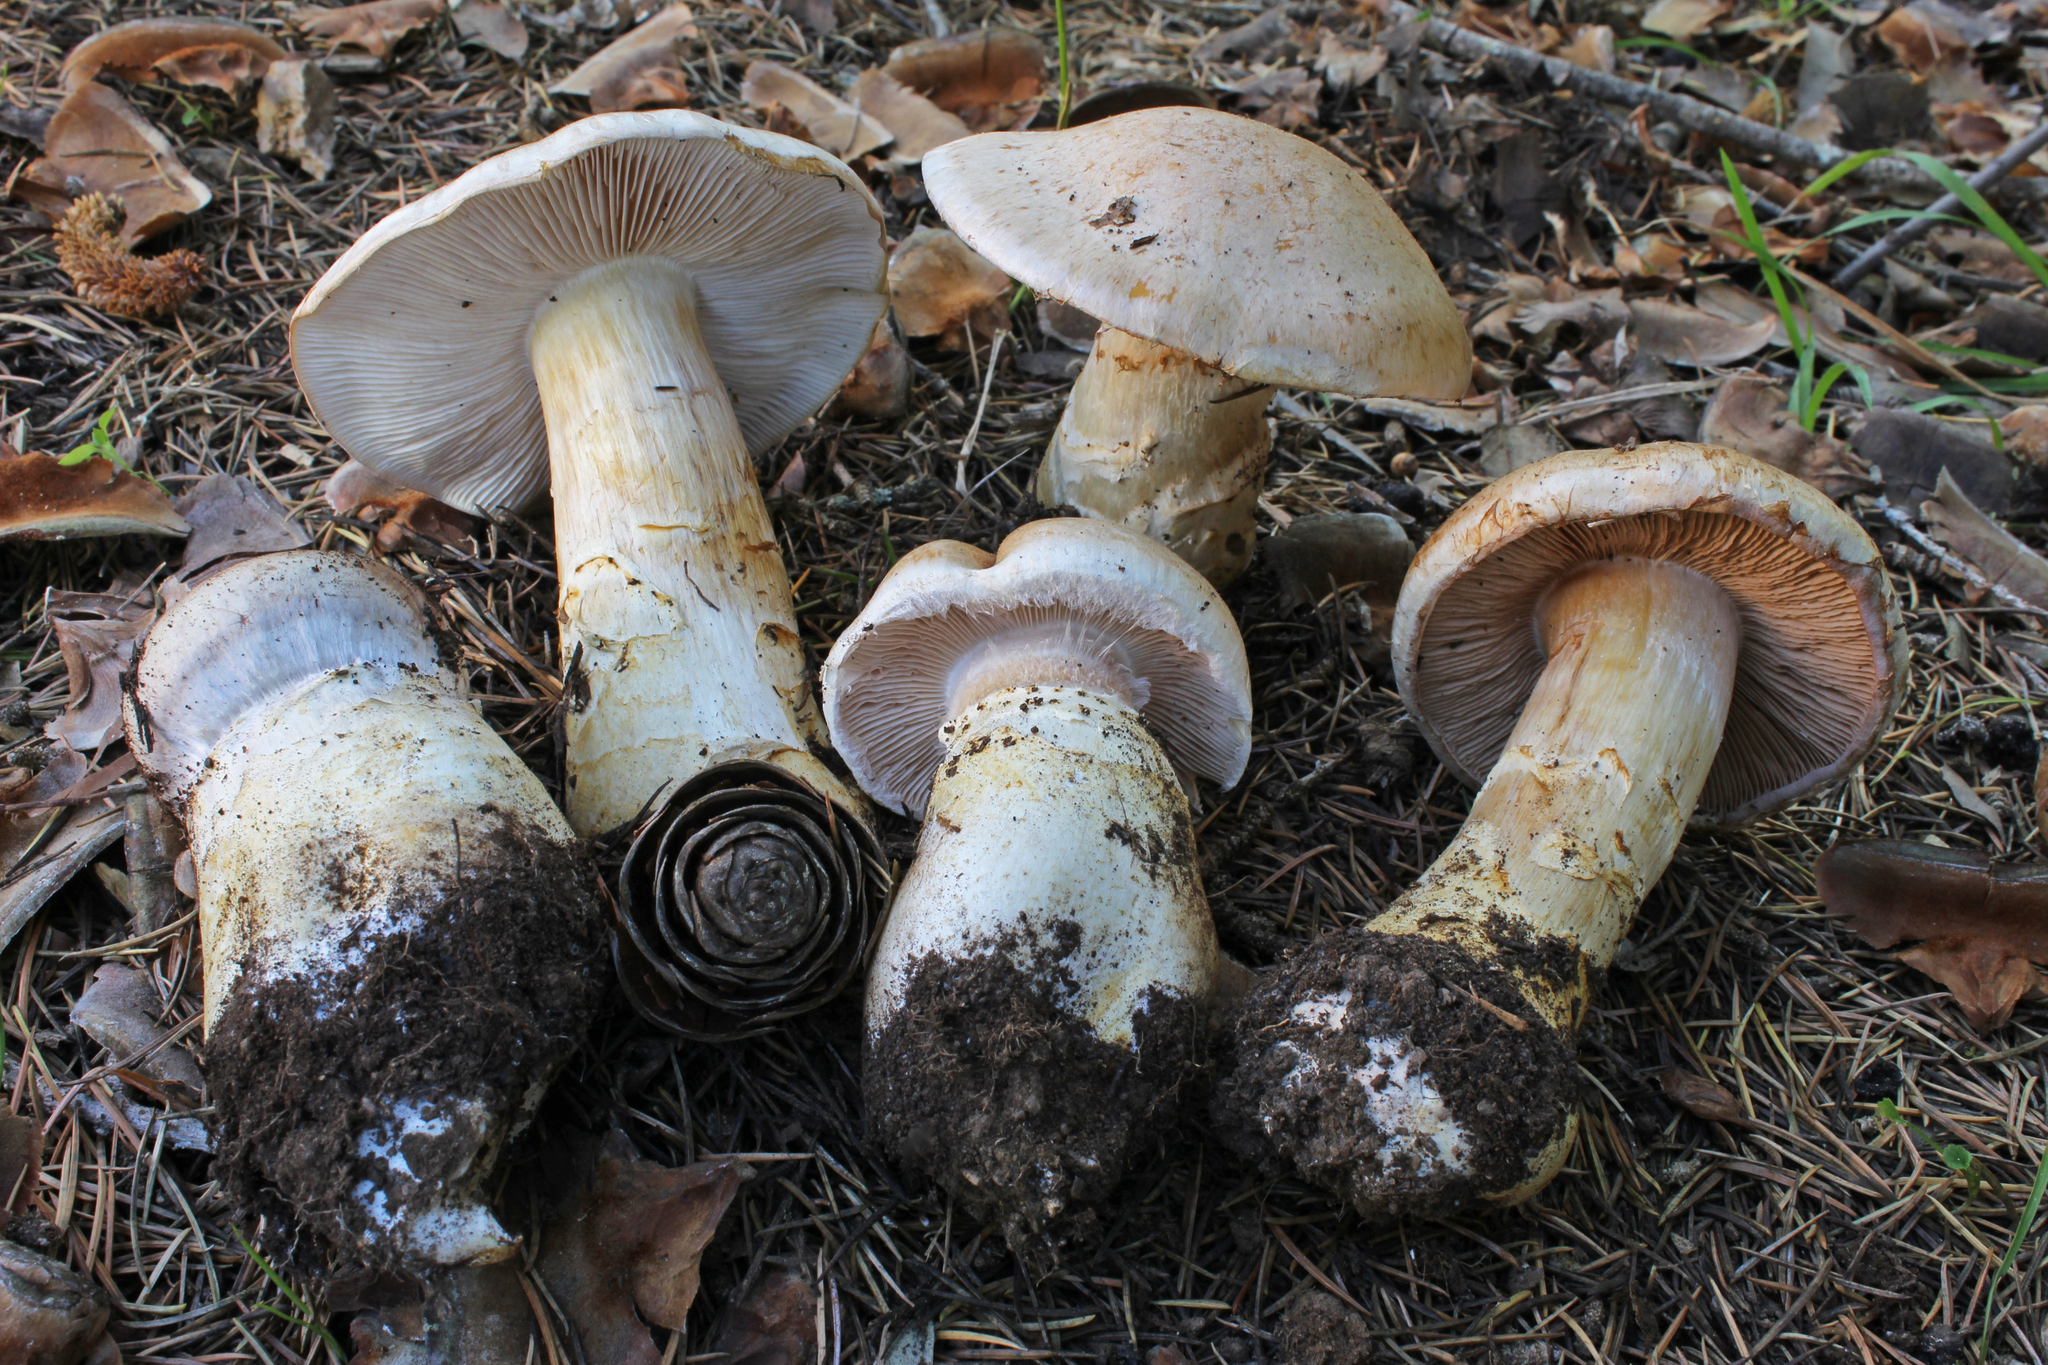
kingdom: Fungi
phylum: Basidiomycota
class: Agaricomycetes
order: Agaricales
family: Cortinariaceae
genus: Phlegmacium
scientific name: Phlegmacium herculeum
